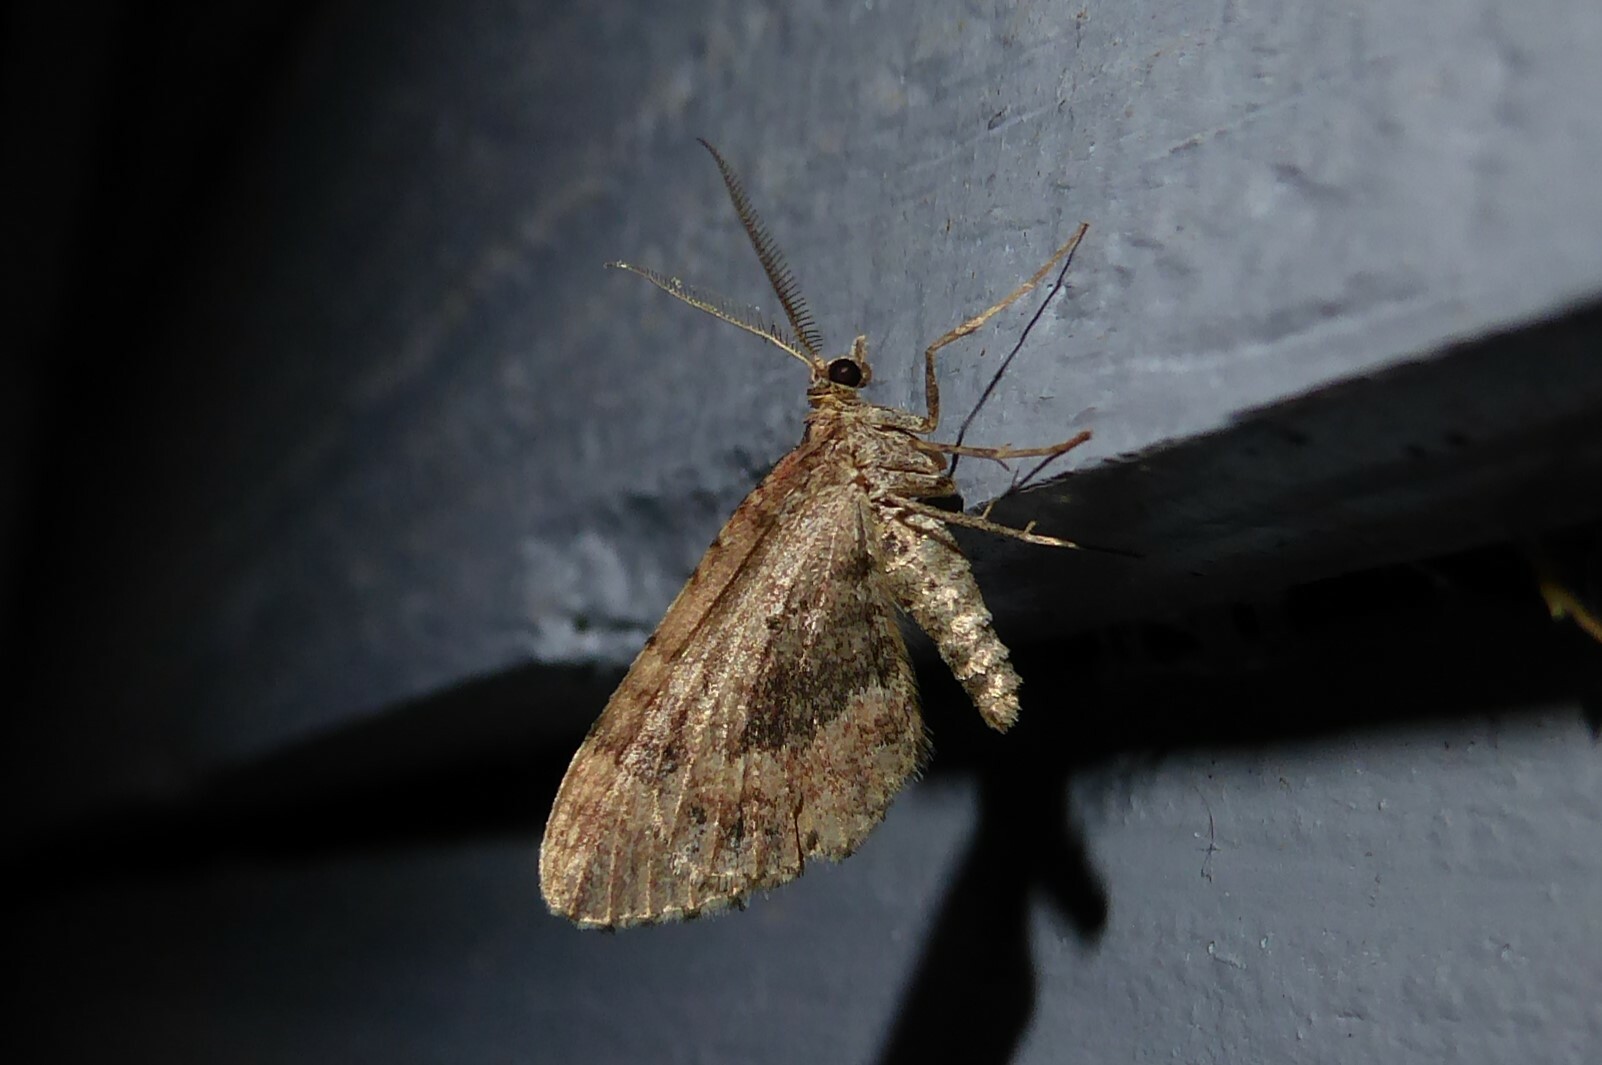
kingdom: Animalia
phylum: Arthropoda
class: Insecta
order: Lepidoptera
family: Geometridae
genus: Asaphodes
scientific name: Asaphodes aegrota
